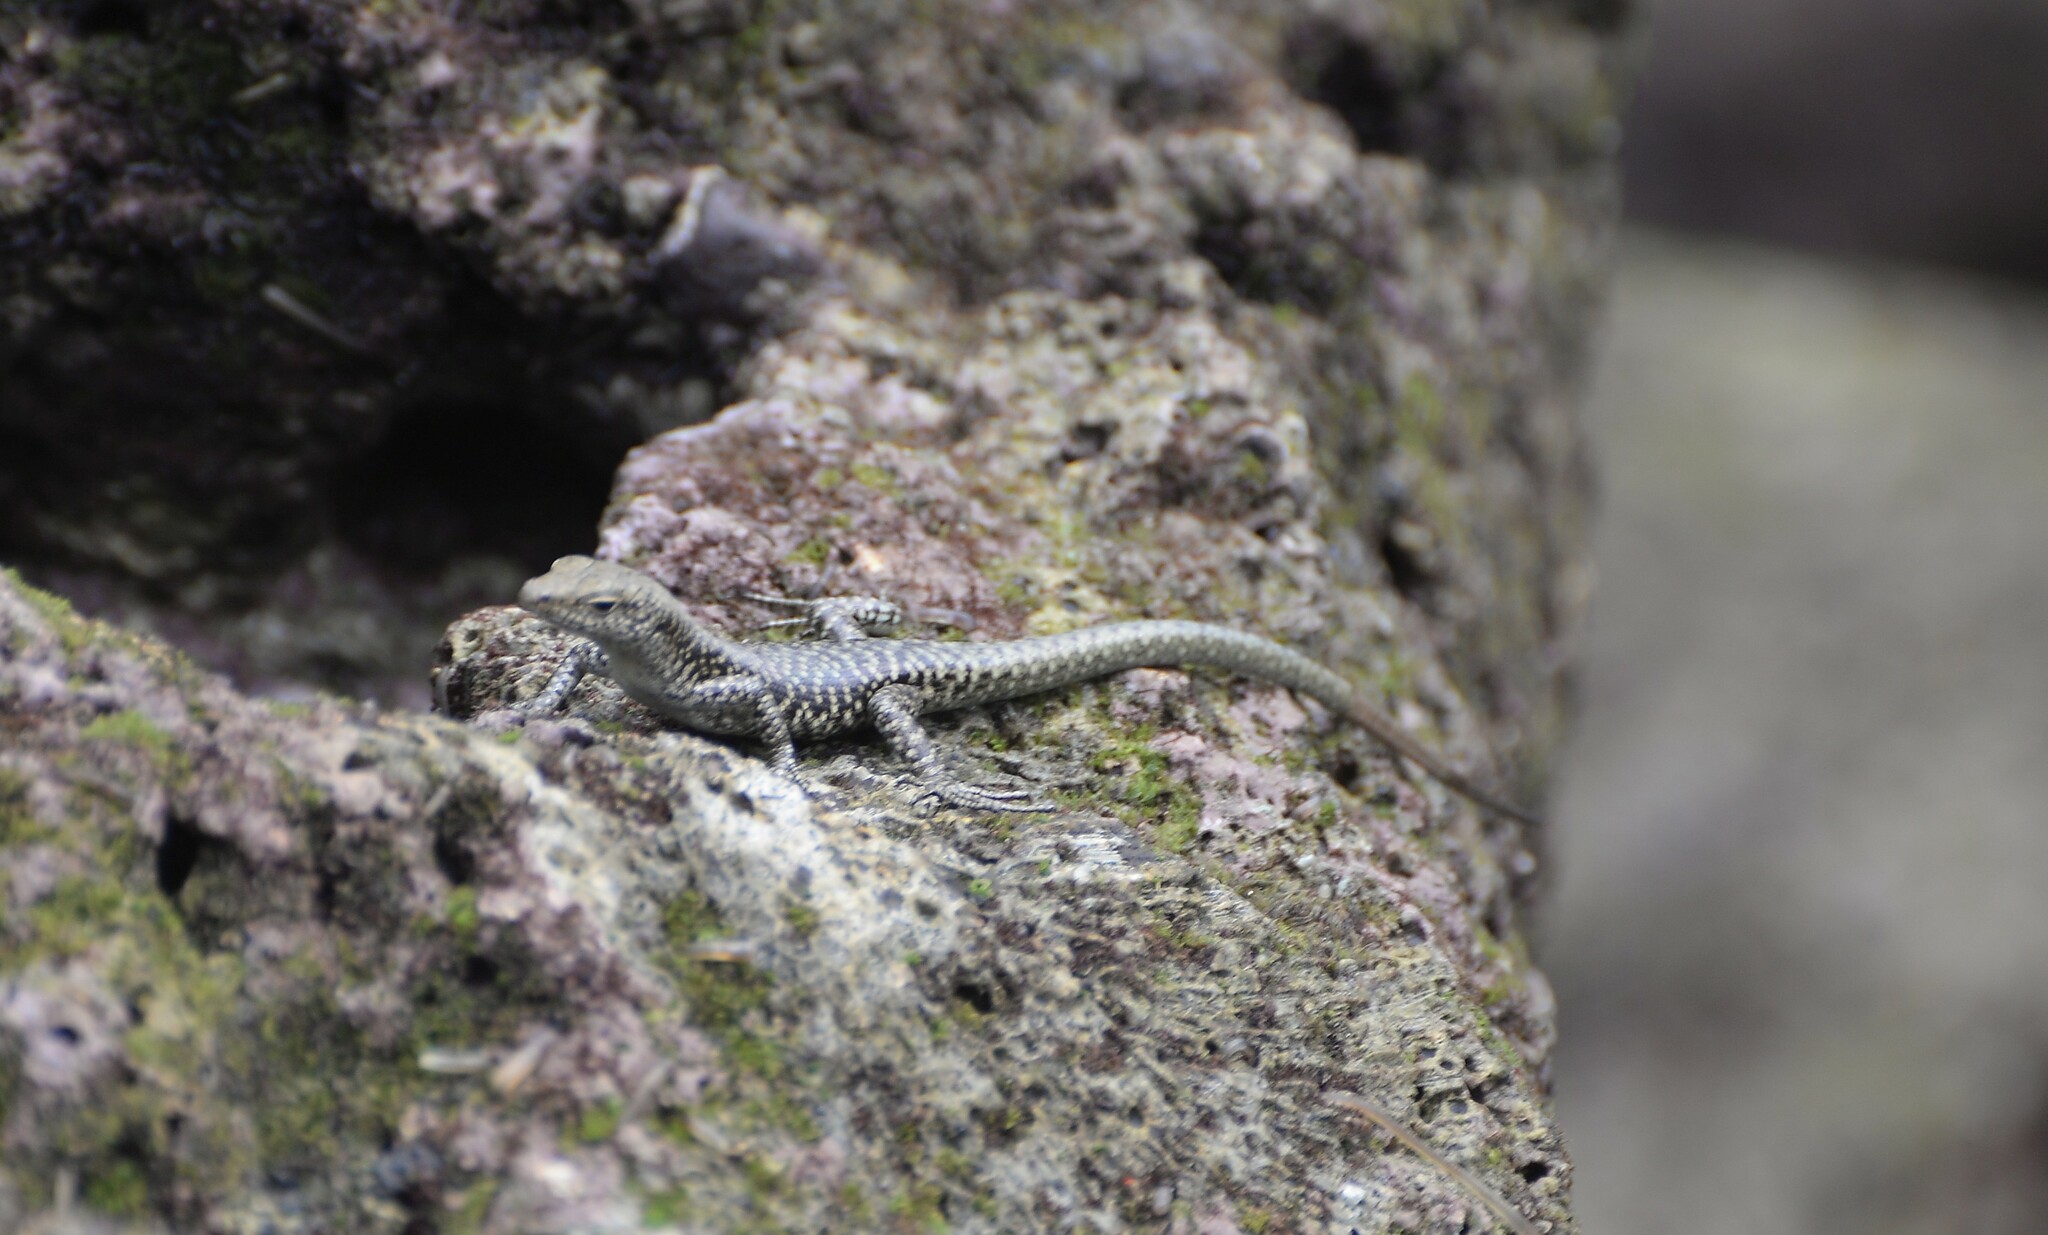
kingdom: Animalia
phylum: Chordata
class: Squamata
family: Scincidae
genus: Emoia
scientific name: Emoia atrocostata
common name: Littoral skink
